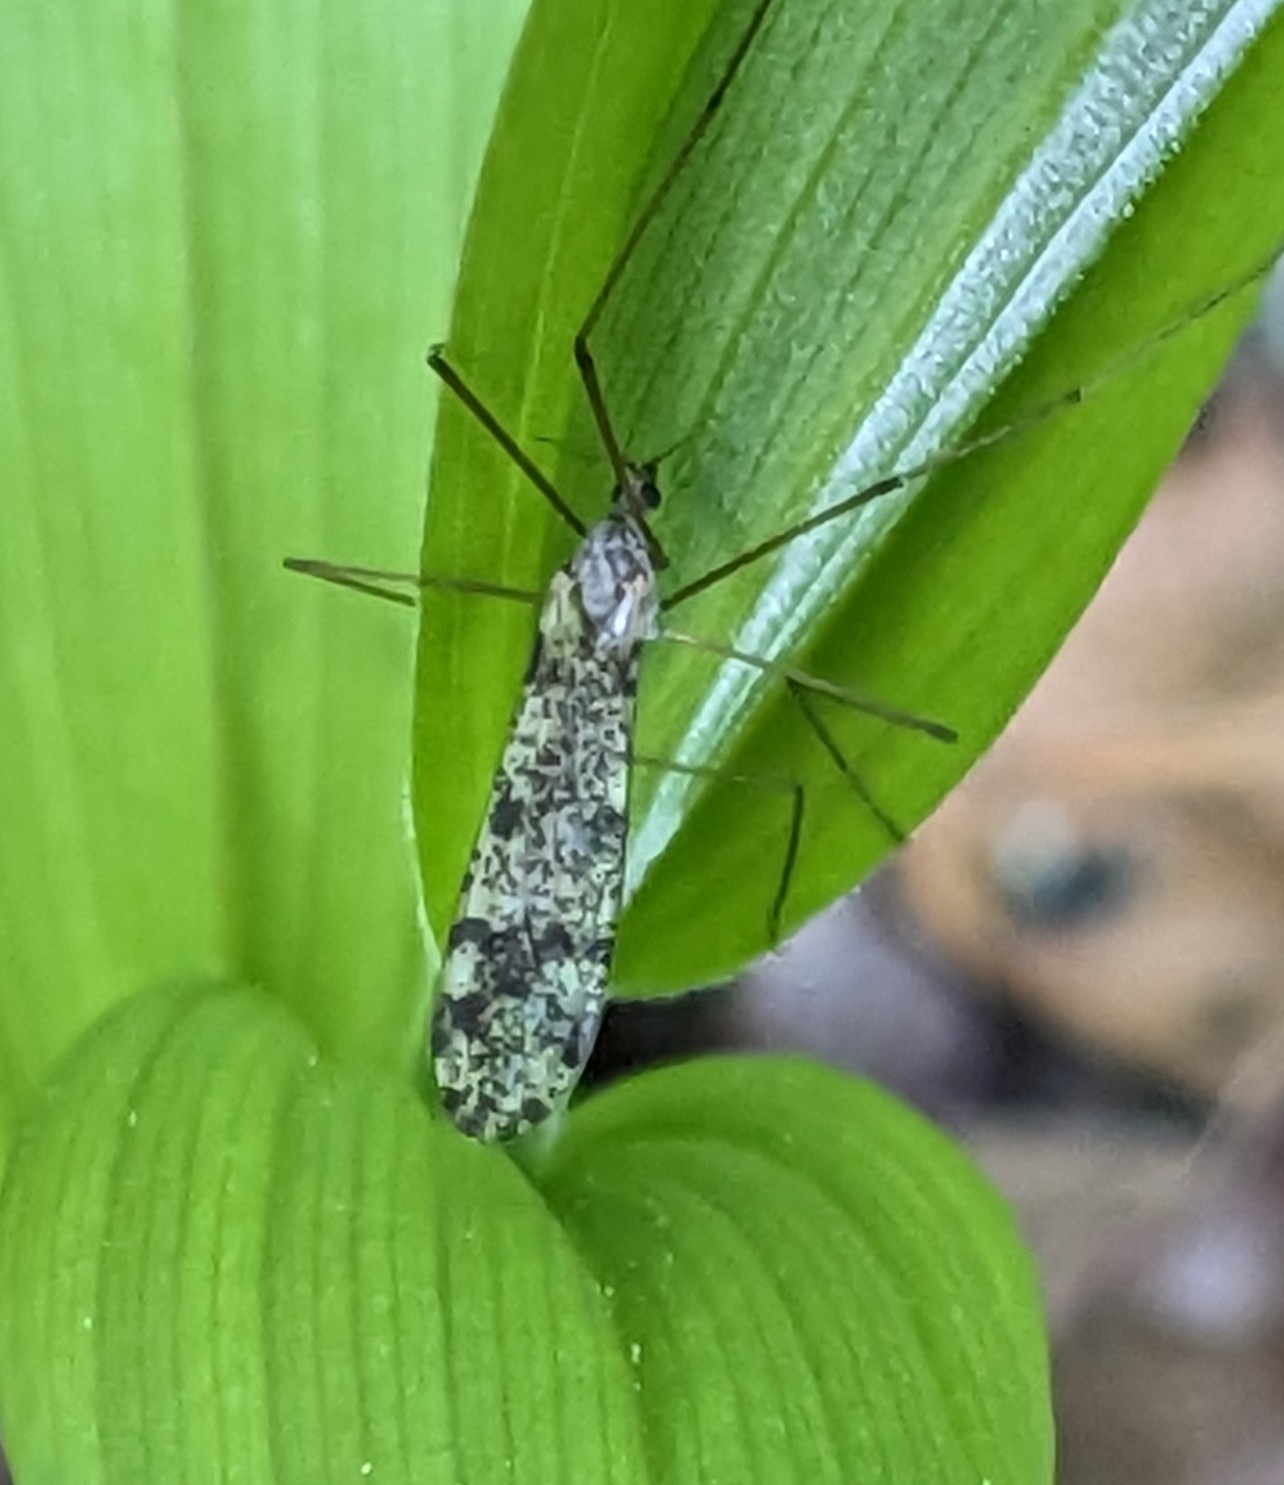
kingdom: Animalia
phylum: Arthropoda
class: Insecta
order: Diptera
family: Limoniidae
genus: Phyllolabis
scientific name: Phyllolabis myriosticta
